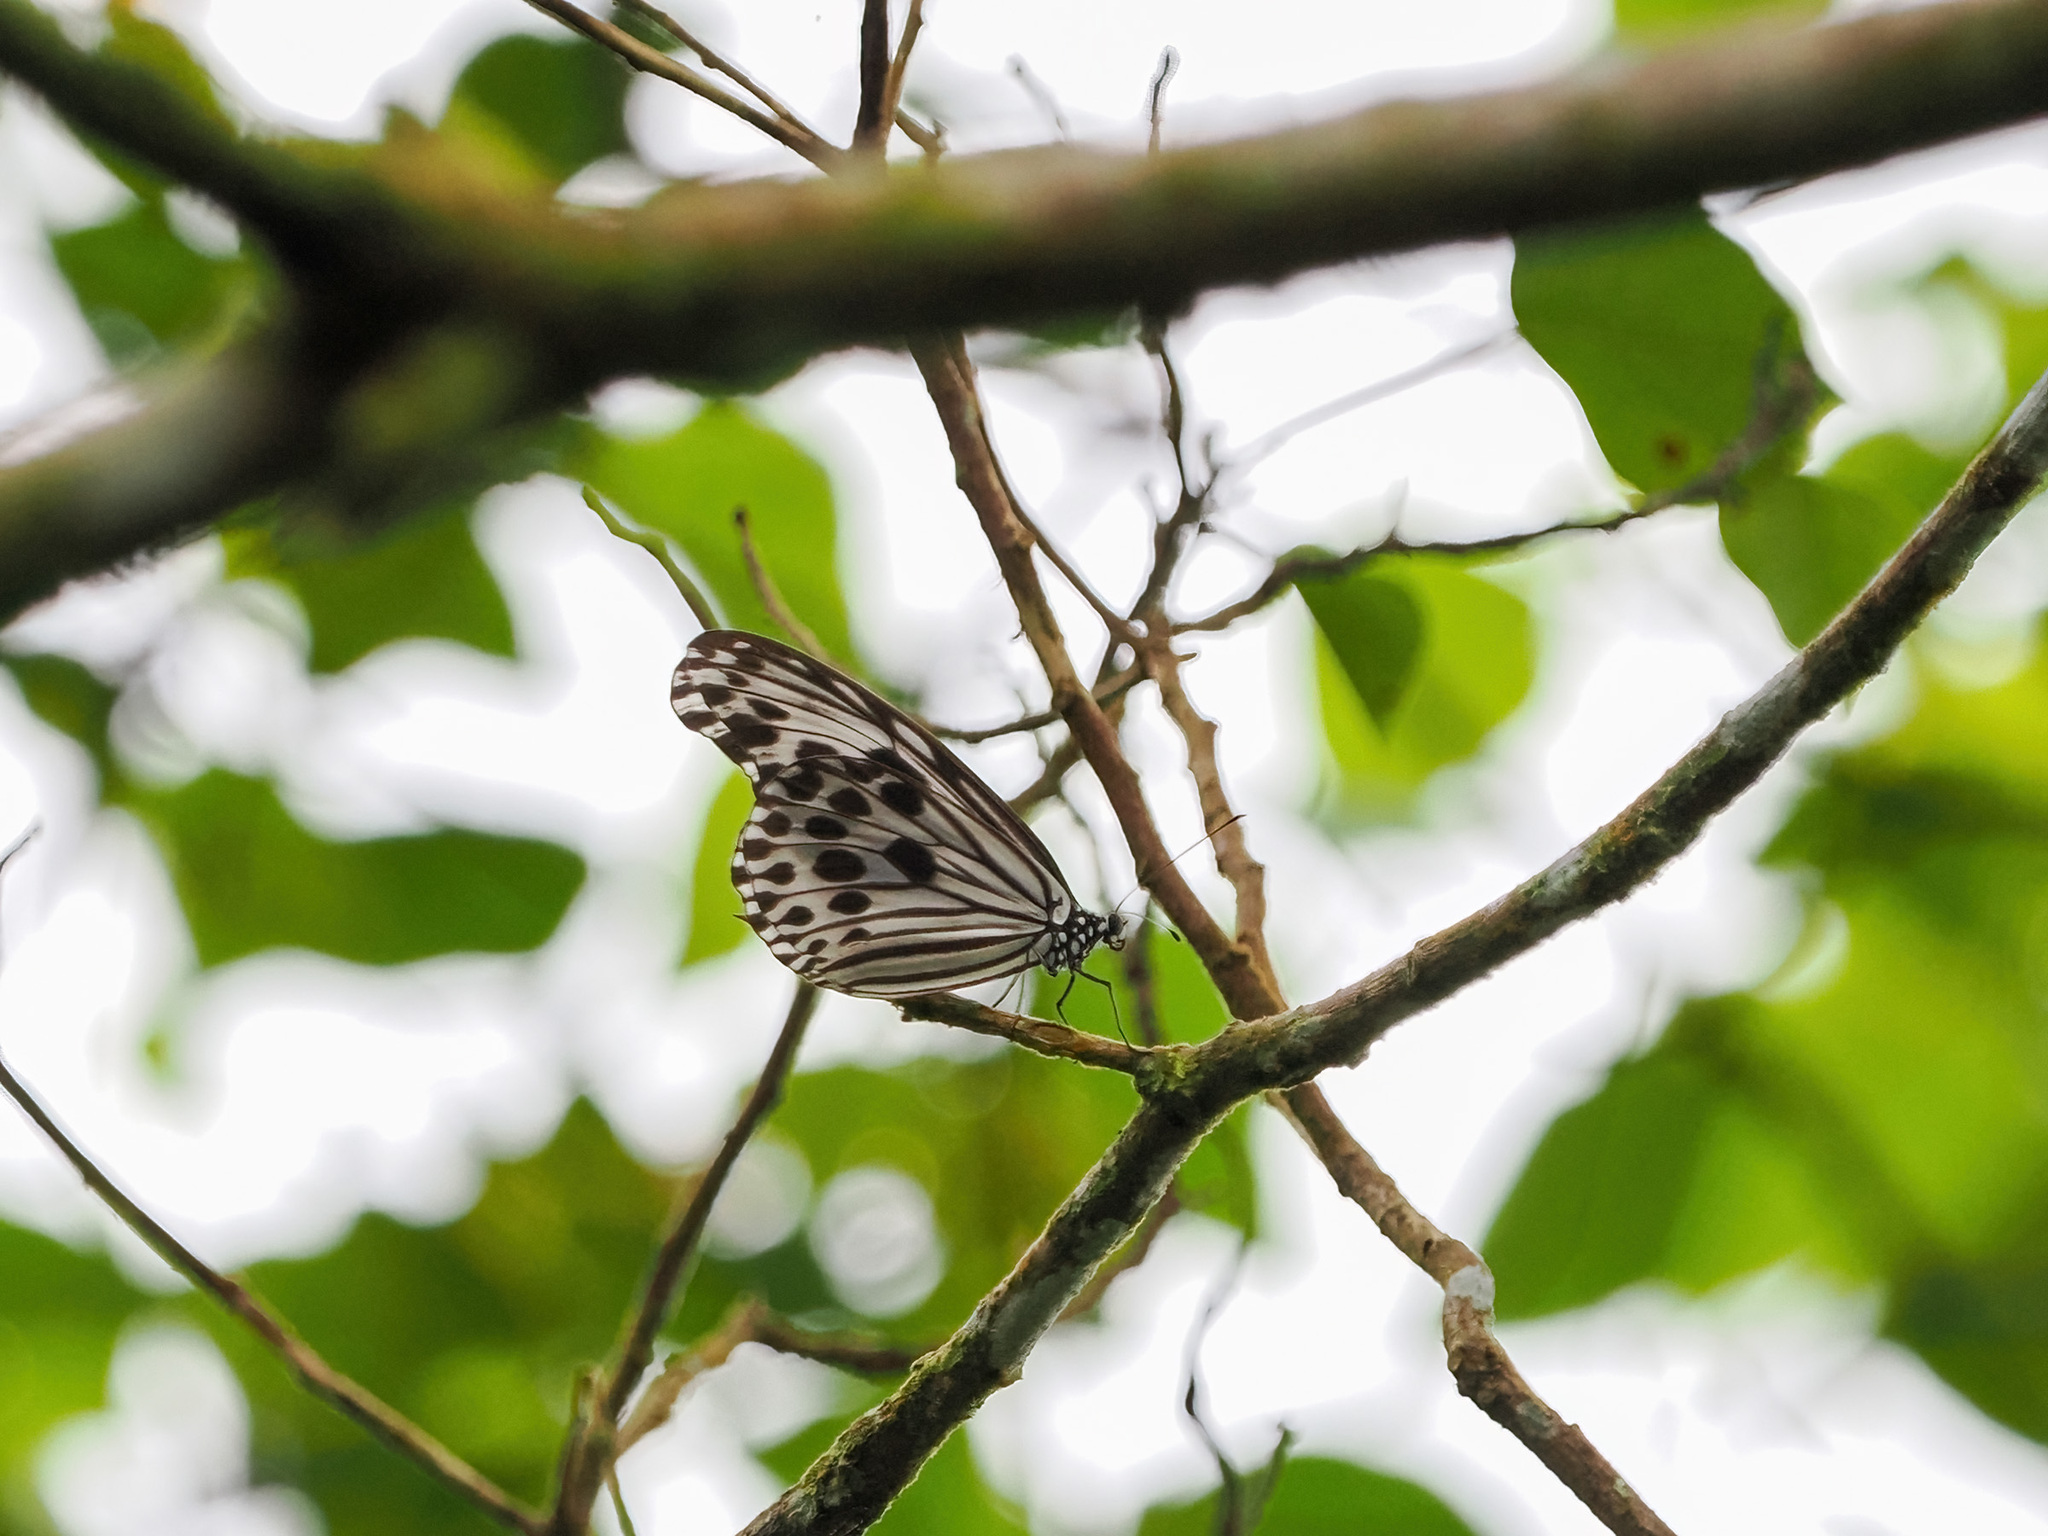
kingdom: Animalia
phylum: Arthropoda
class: Insecta
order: Lepidoptera
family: Nymphalidae
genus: Ideopsis
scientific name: Ideopsis gaura
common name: Smaller wood nymph
